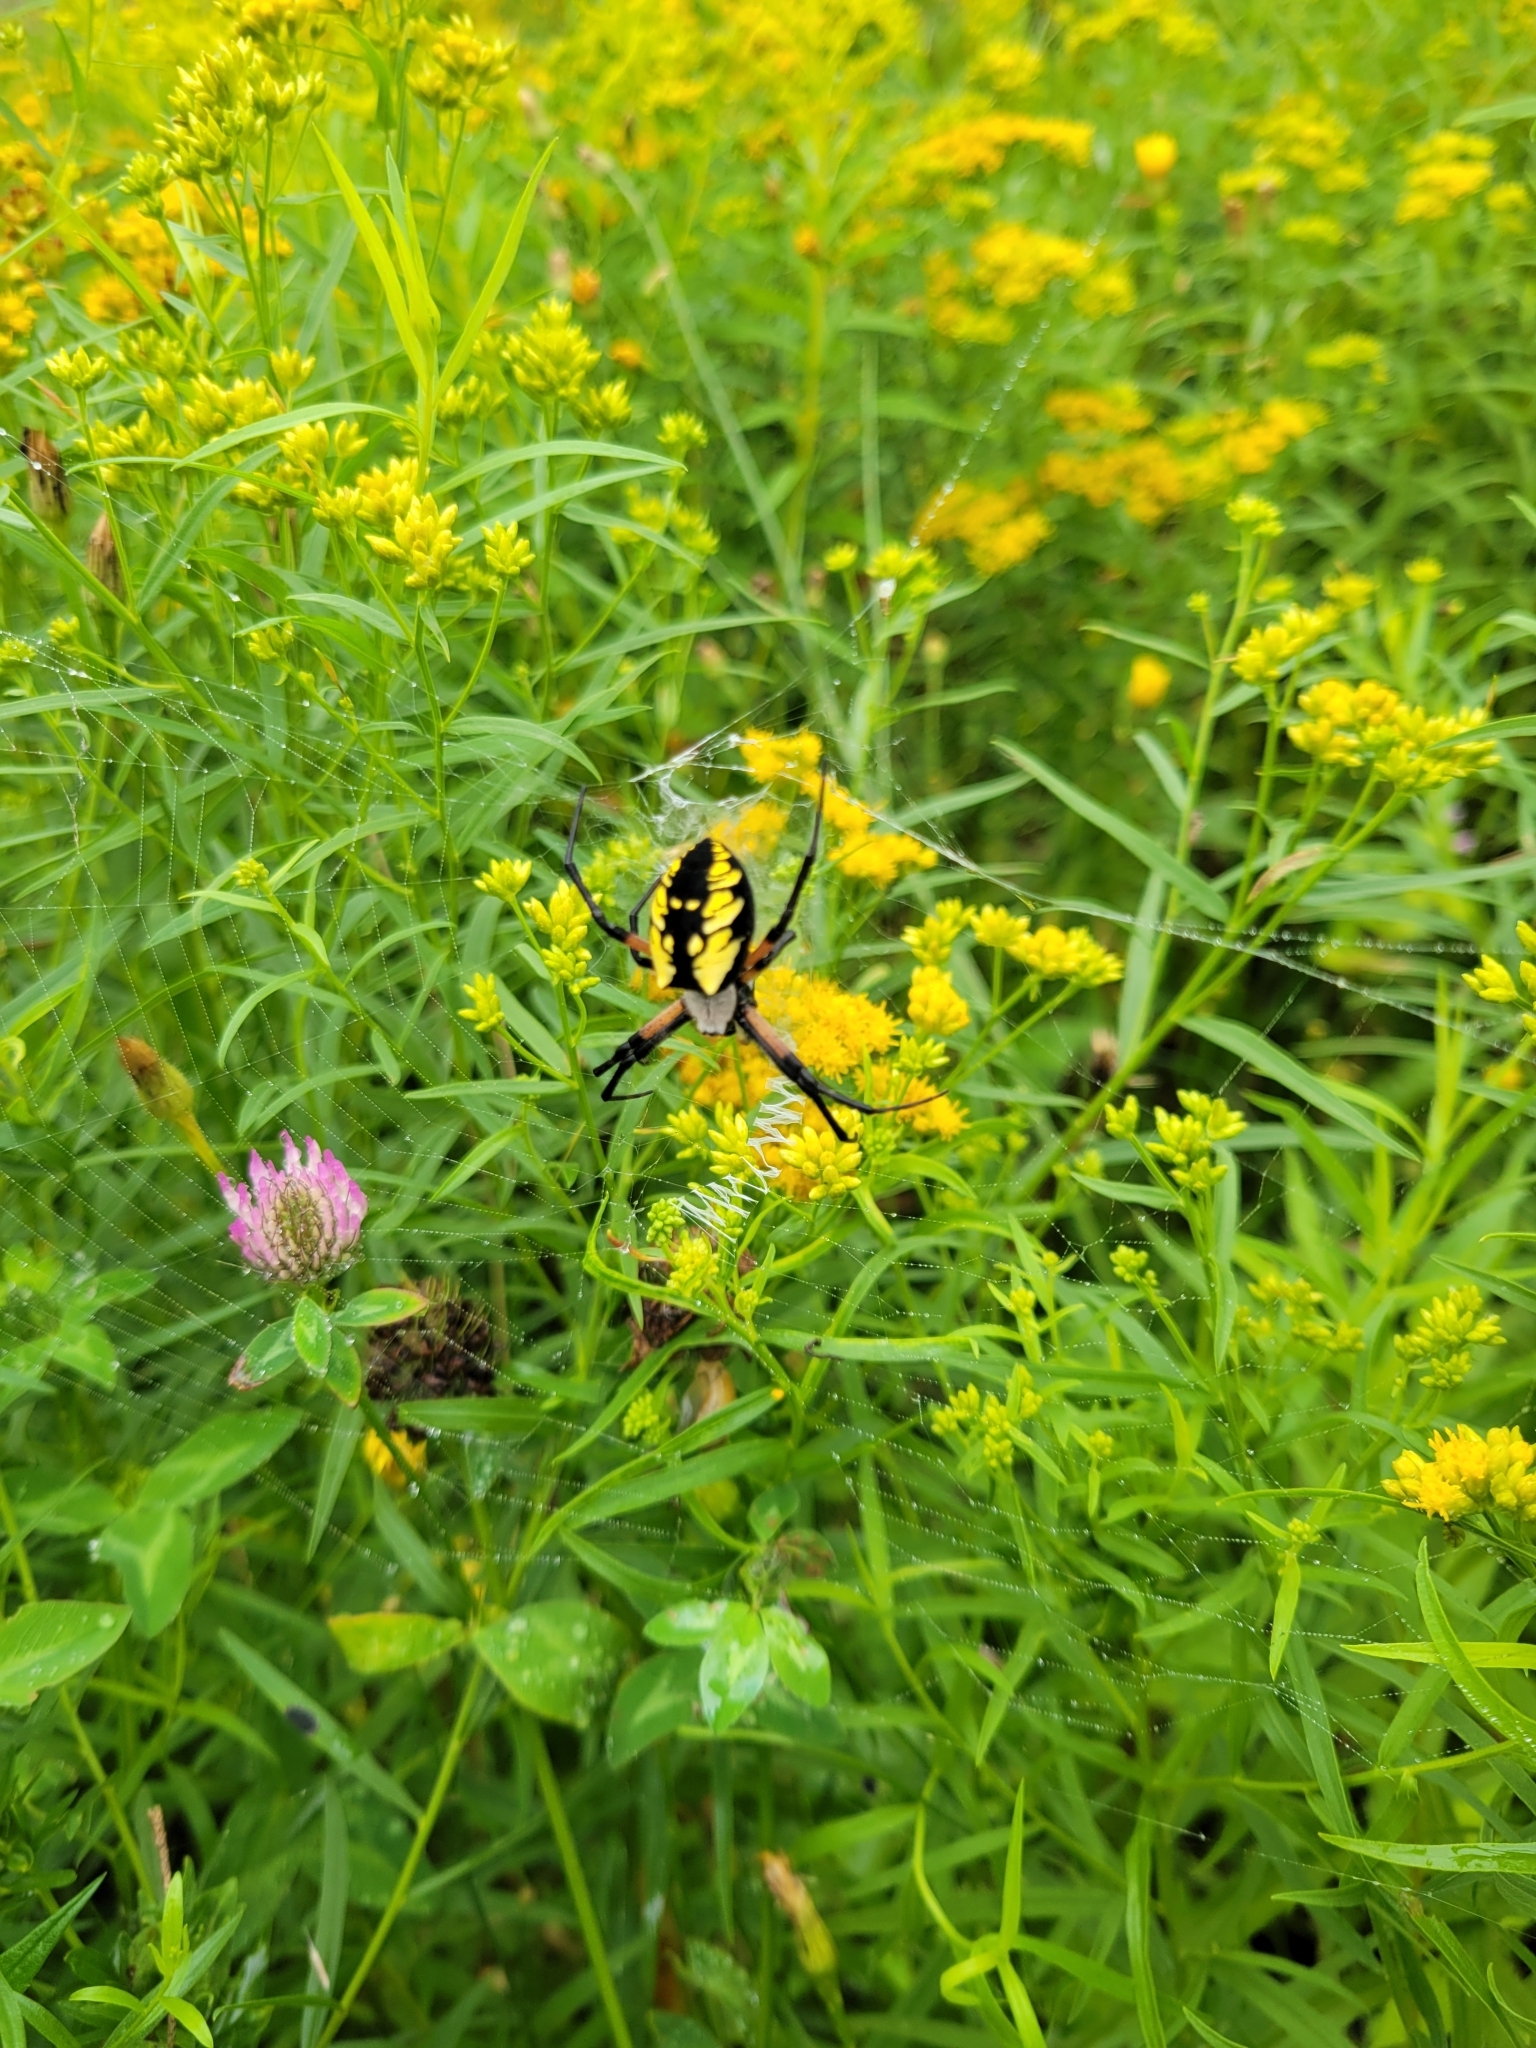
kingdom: Animalia
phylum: Arthropoda
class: Arachnida
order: Araneae
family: Araneidae
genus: Argiope
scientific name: Argiope aurantia
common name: Orb weavers
